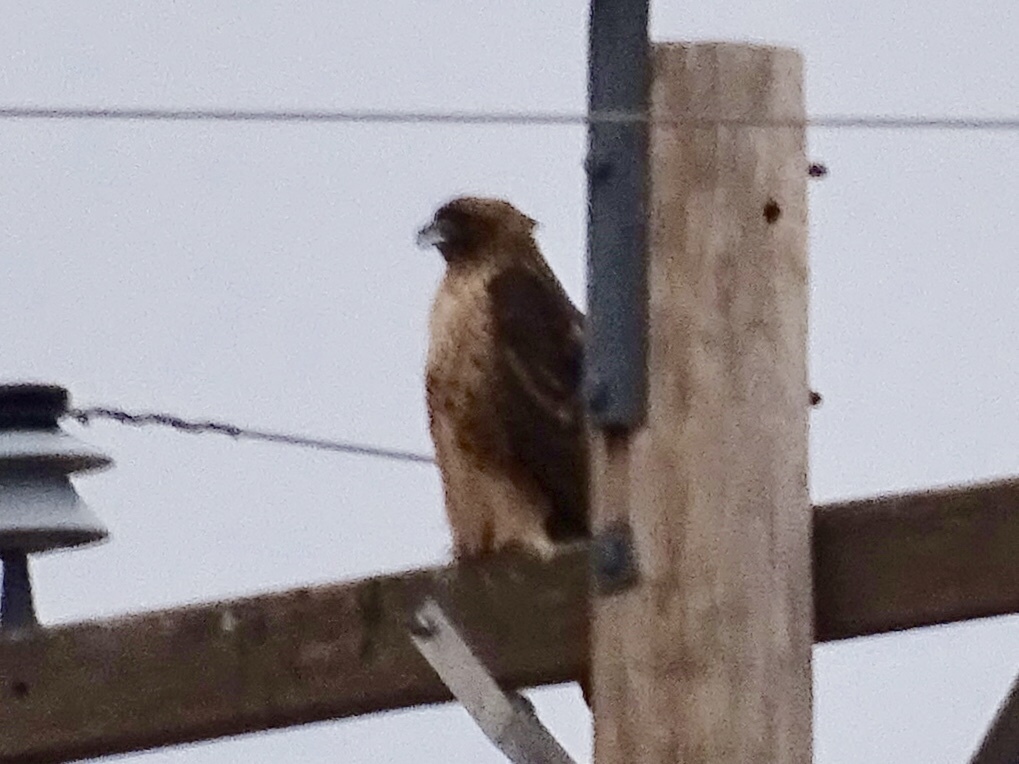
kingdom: Animalia
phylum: Chordata
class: Aves
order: Accipitriformes
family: Accipitridae
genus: Buteo
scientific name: Buteo jamaicensis
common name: Red-tailed hawk
